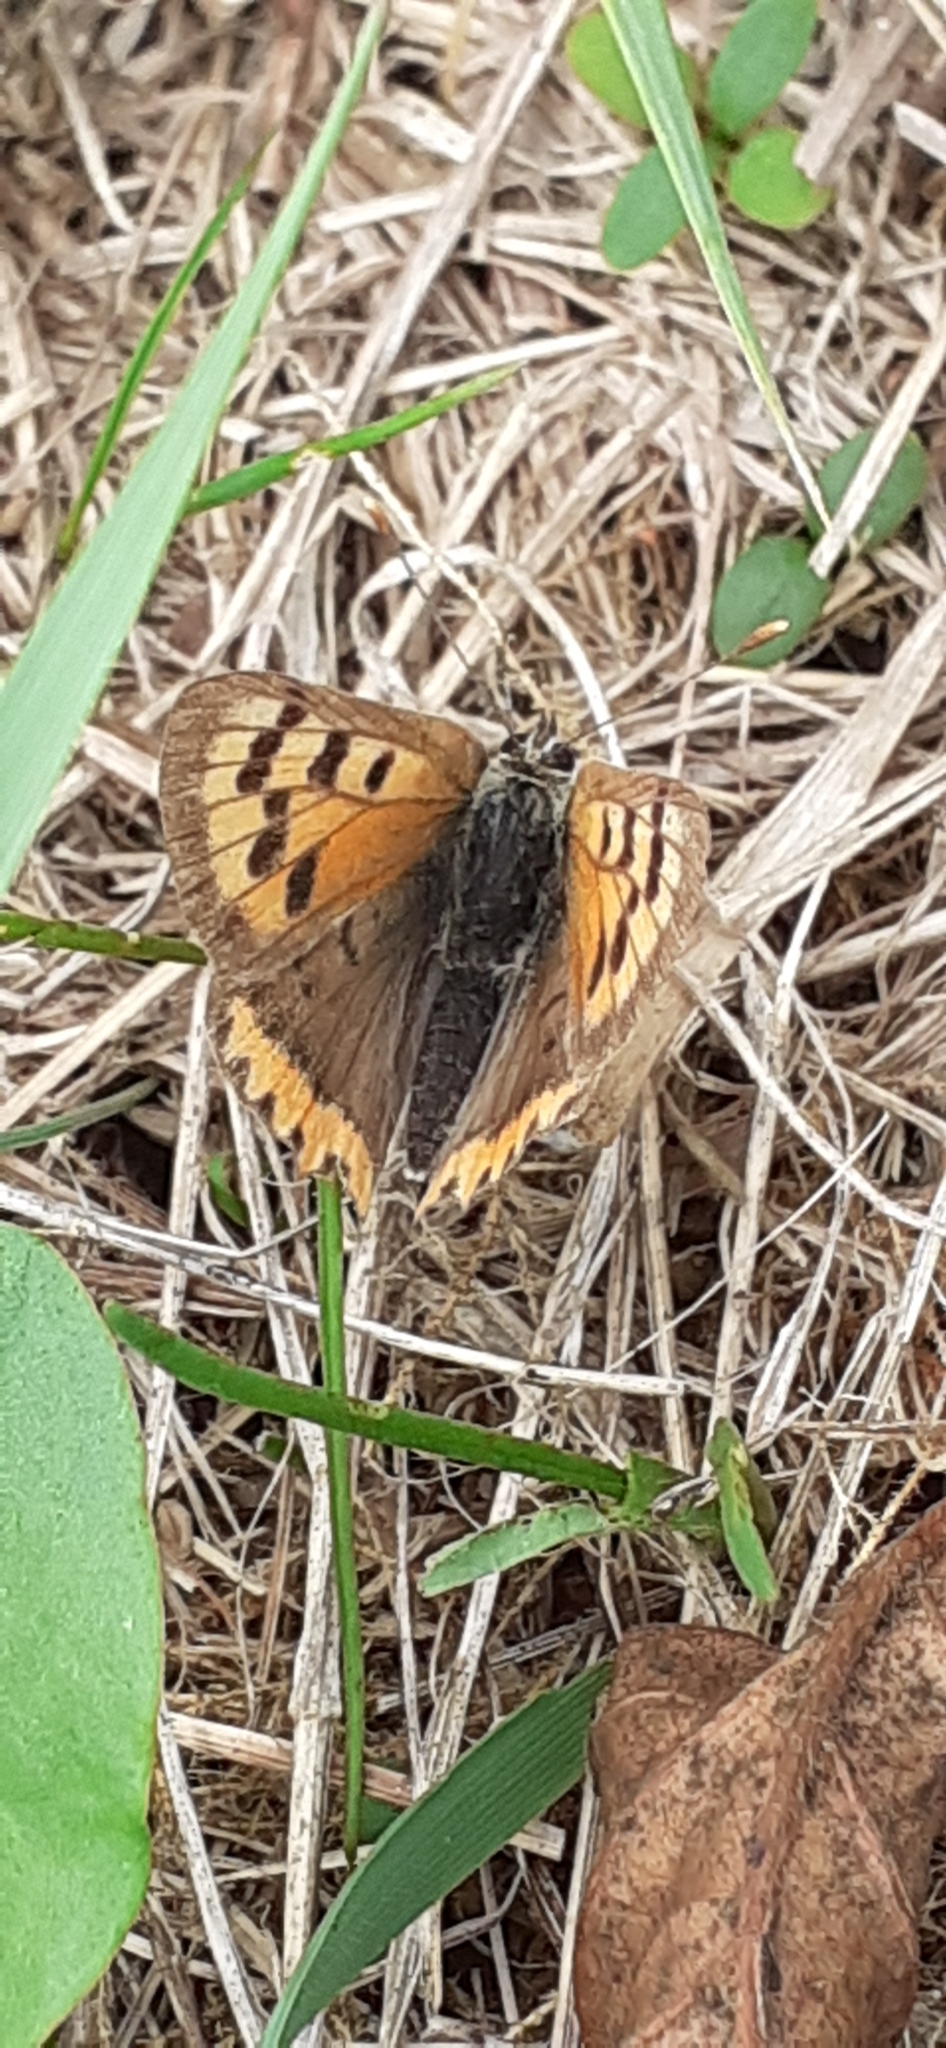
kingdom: Animalia
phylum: Arthropoda
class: Insecta
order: Lepidoptera
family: Lycaenidae
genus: Lycaena
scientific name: Lycaena phlaeas
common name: Small copper
